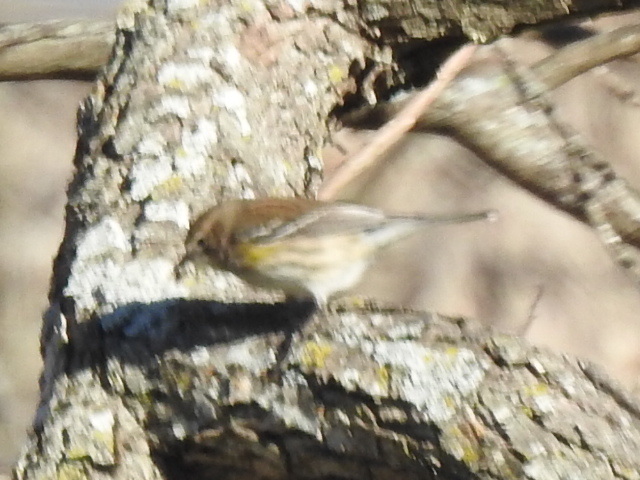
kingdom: Animalia
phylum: Chordata
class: Aves
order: Passeriformes
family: Parulidae
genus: Setophaga
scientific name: Setophaga coronata
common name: Myrtle warbler
